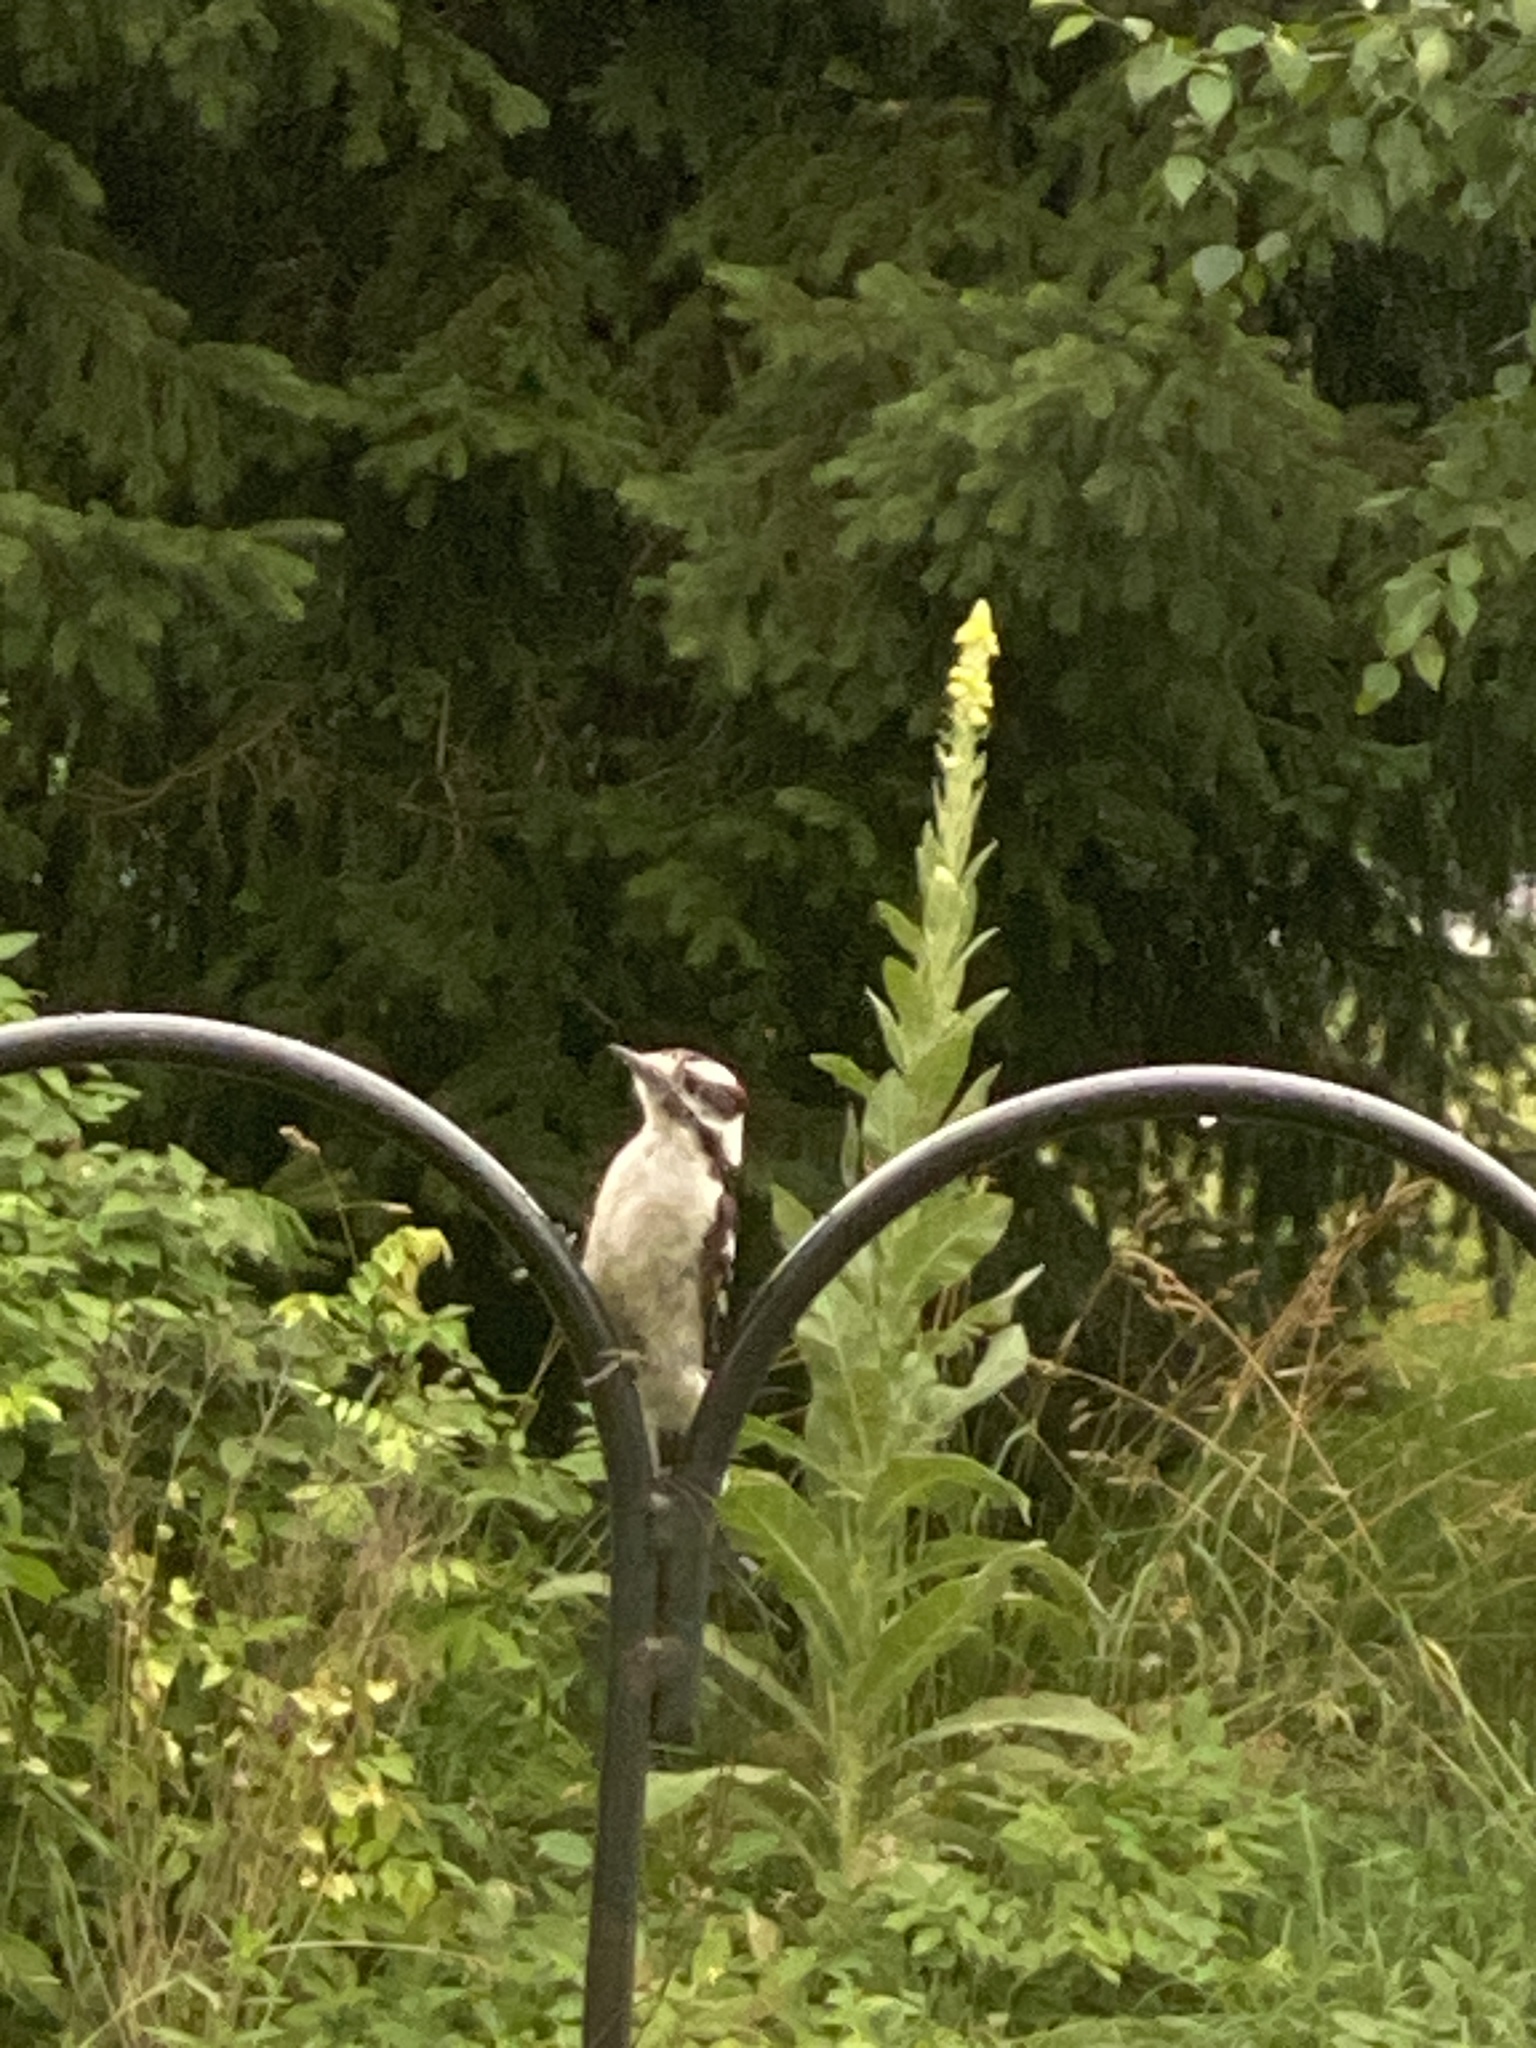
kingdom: Animalia
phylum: Chordata
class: Aves
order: Piciformes
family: Picidae
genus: Dryobates
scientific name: Dryobates pubescens
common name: Downy woodpecker
